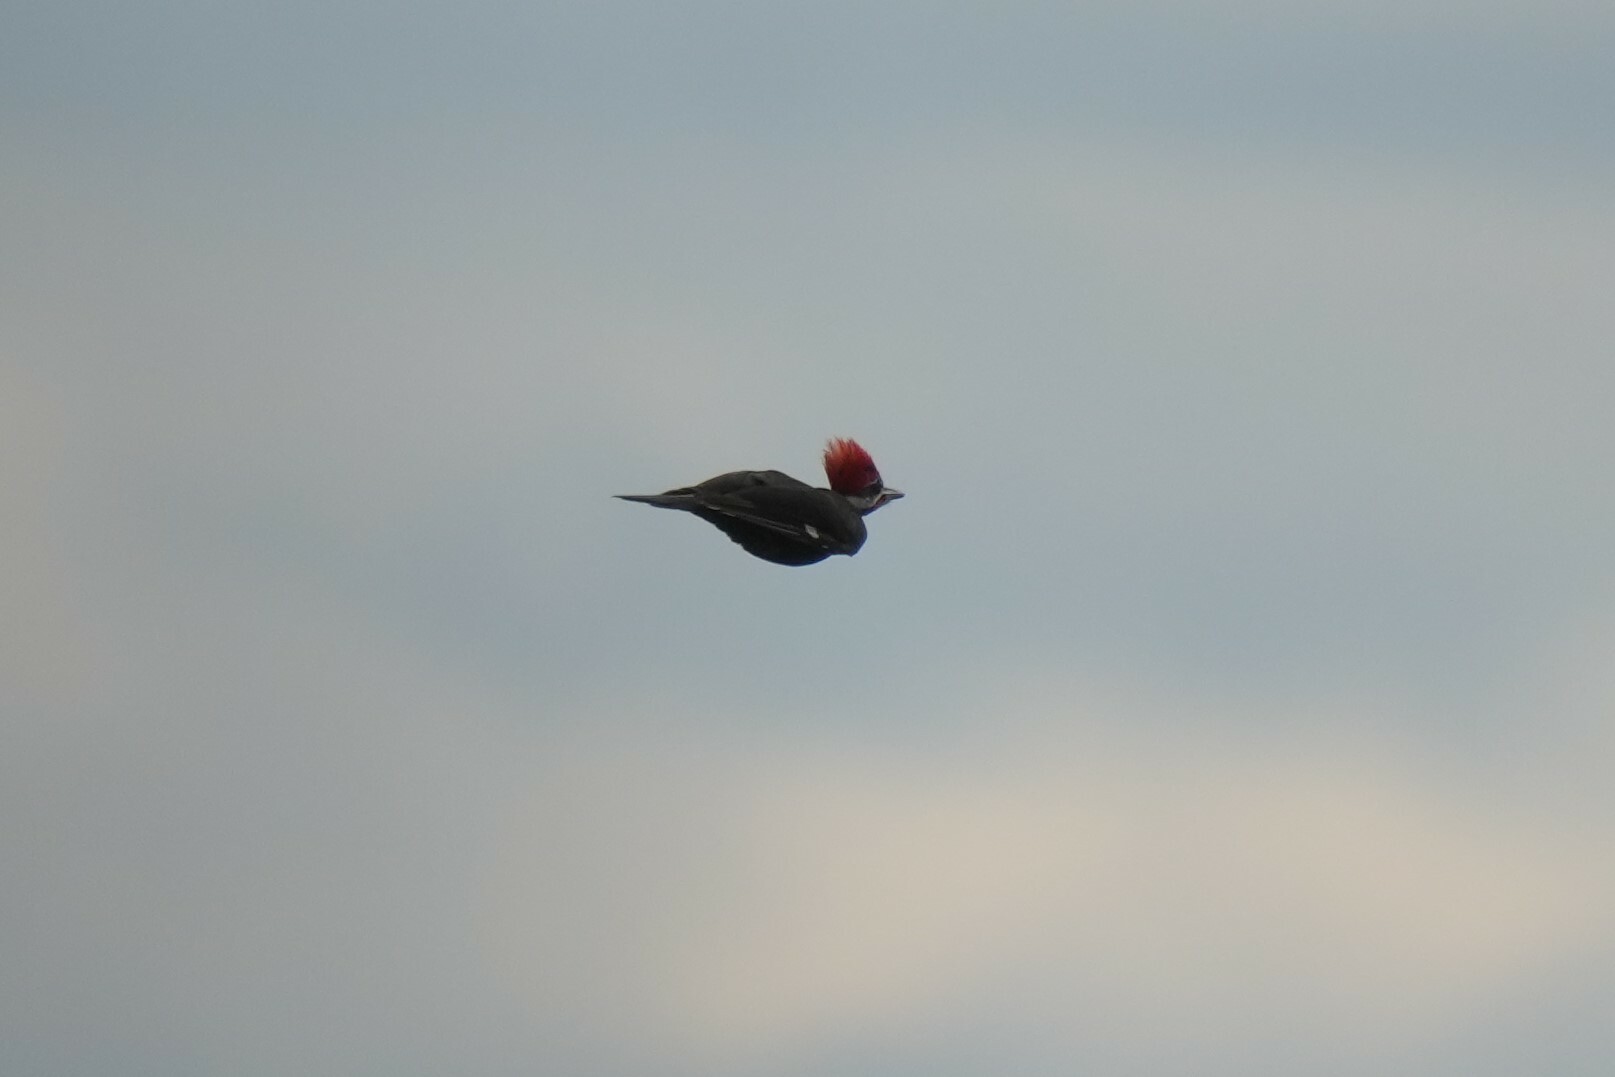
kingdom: Animalia
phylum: Chordata
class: Aves
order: Piciformes
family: Picidae
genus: Dryocopus
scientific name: Dryocopus pileatus
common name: Pileated woodpecker
